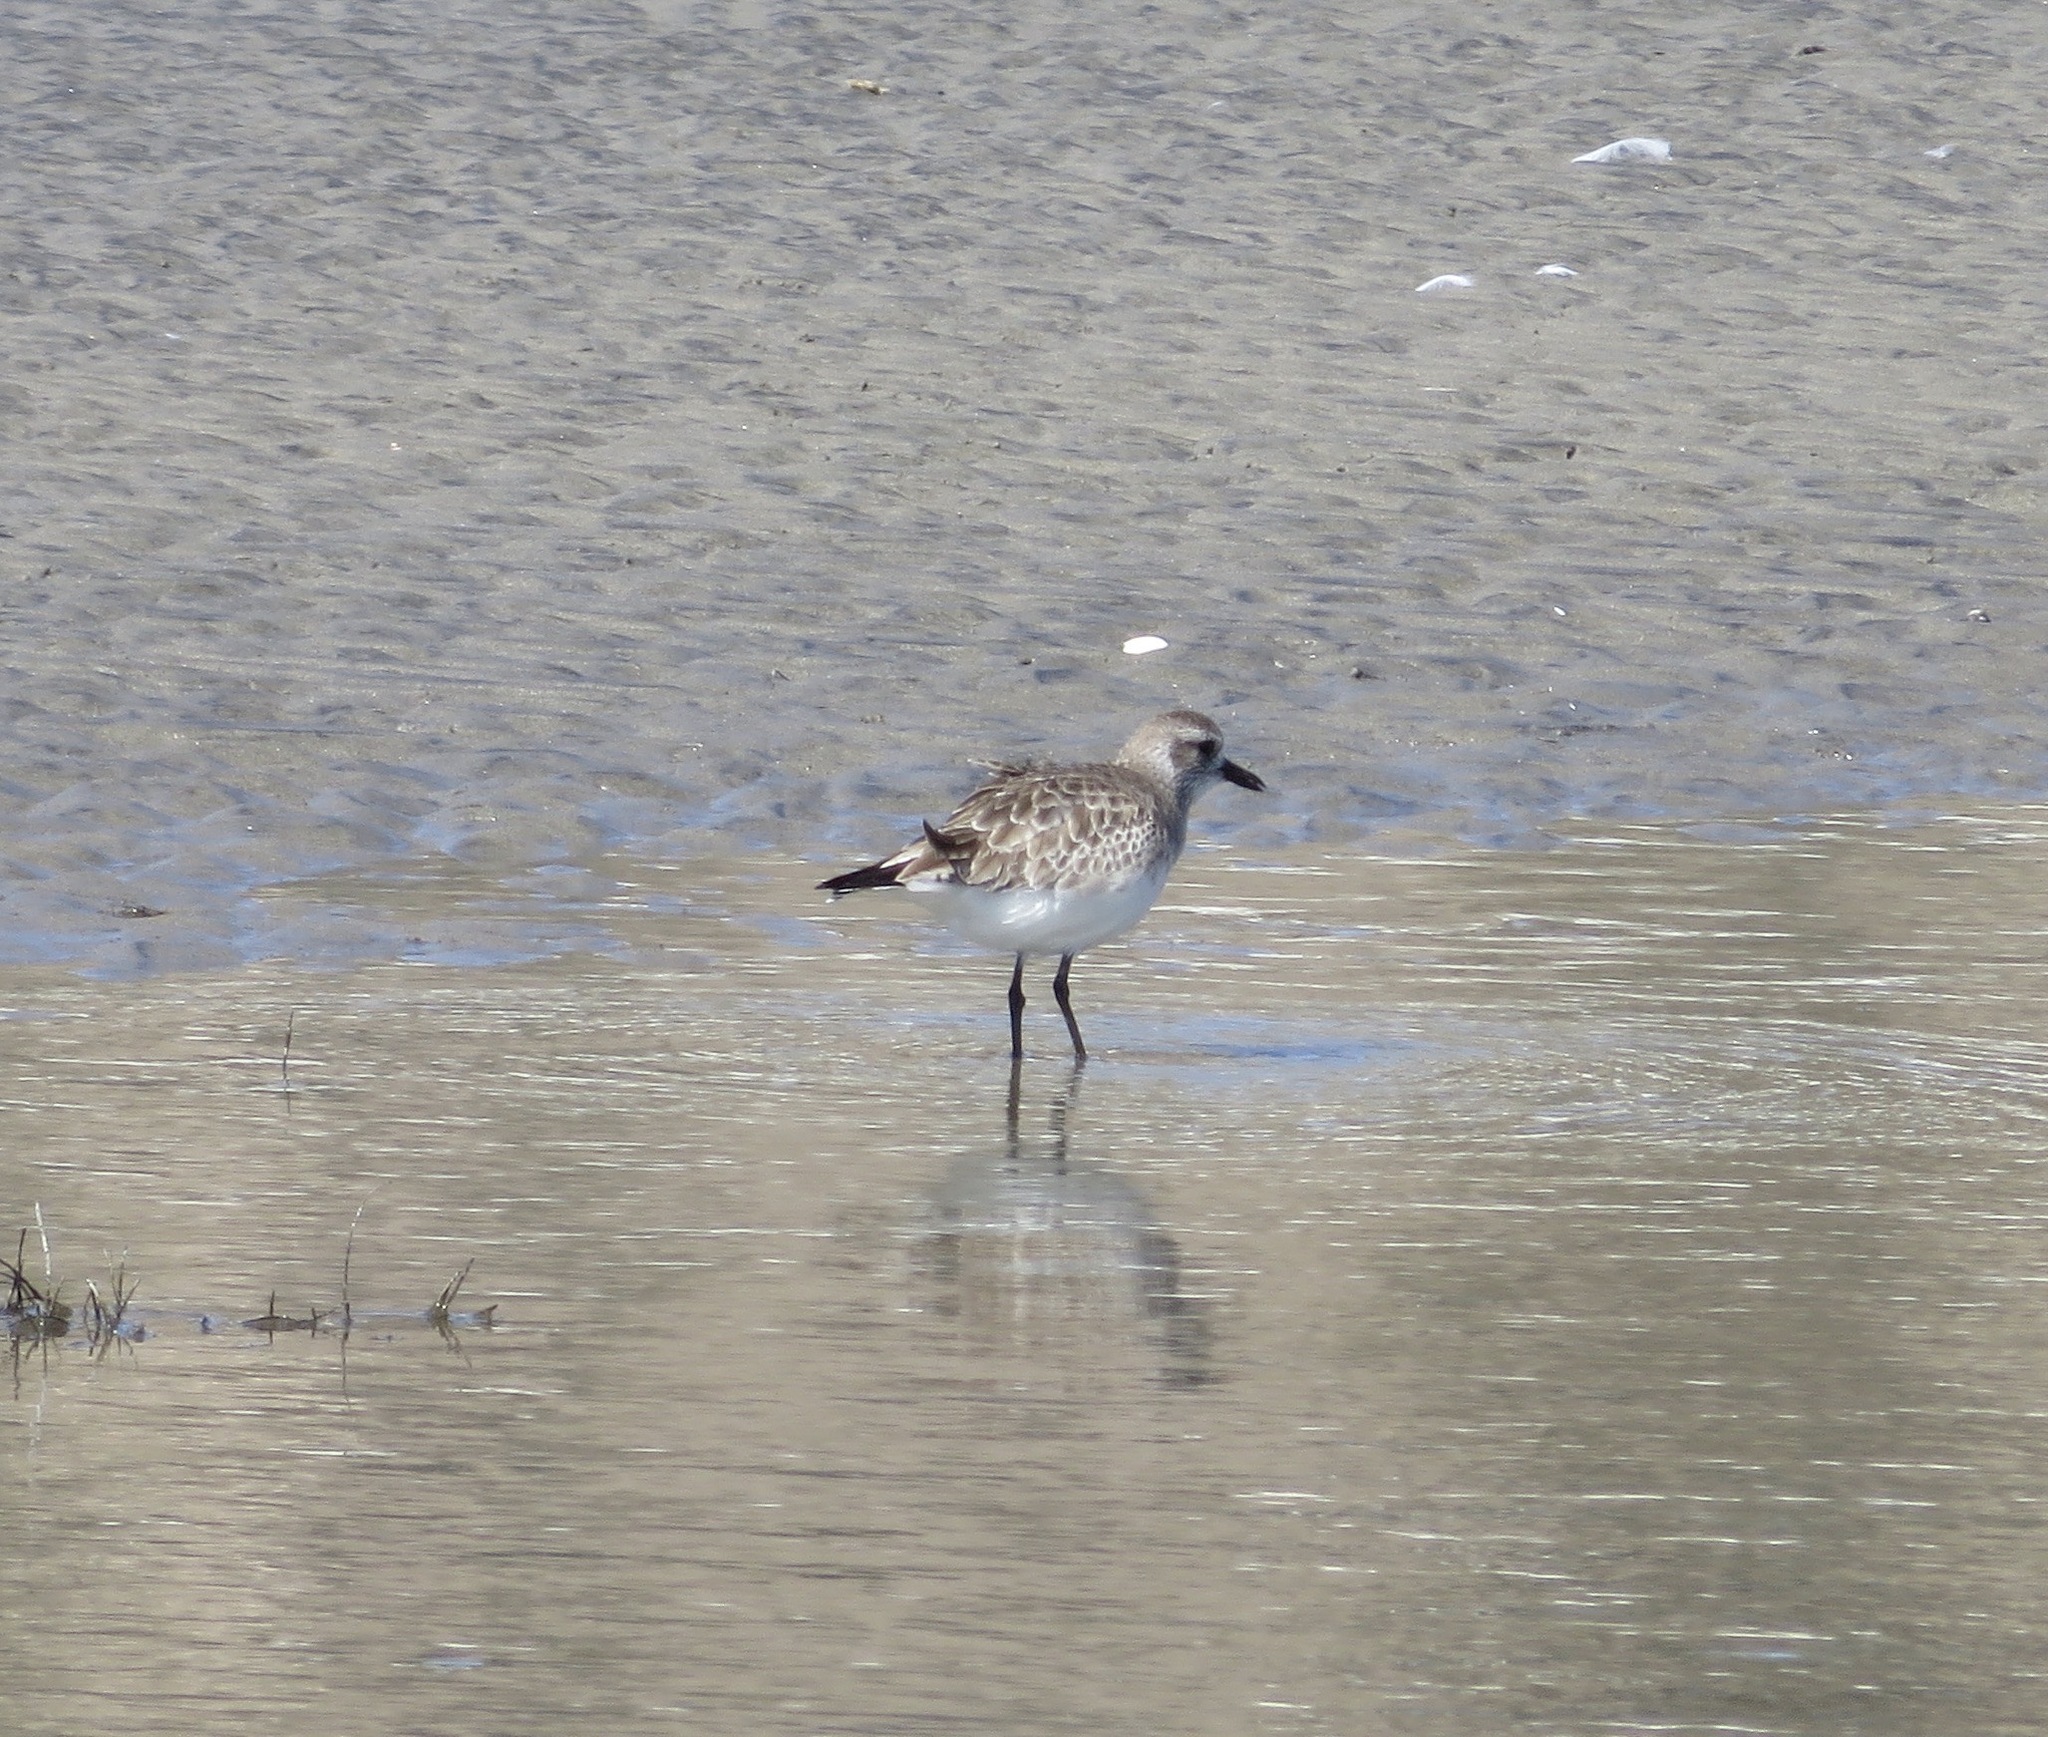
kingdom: Animalia
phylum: Chordata
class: Aves
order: Charadriiformes
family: Charadriidae
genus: Pluvialis
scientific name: Pluvialis squatarola
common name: Grey plover
